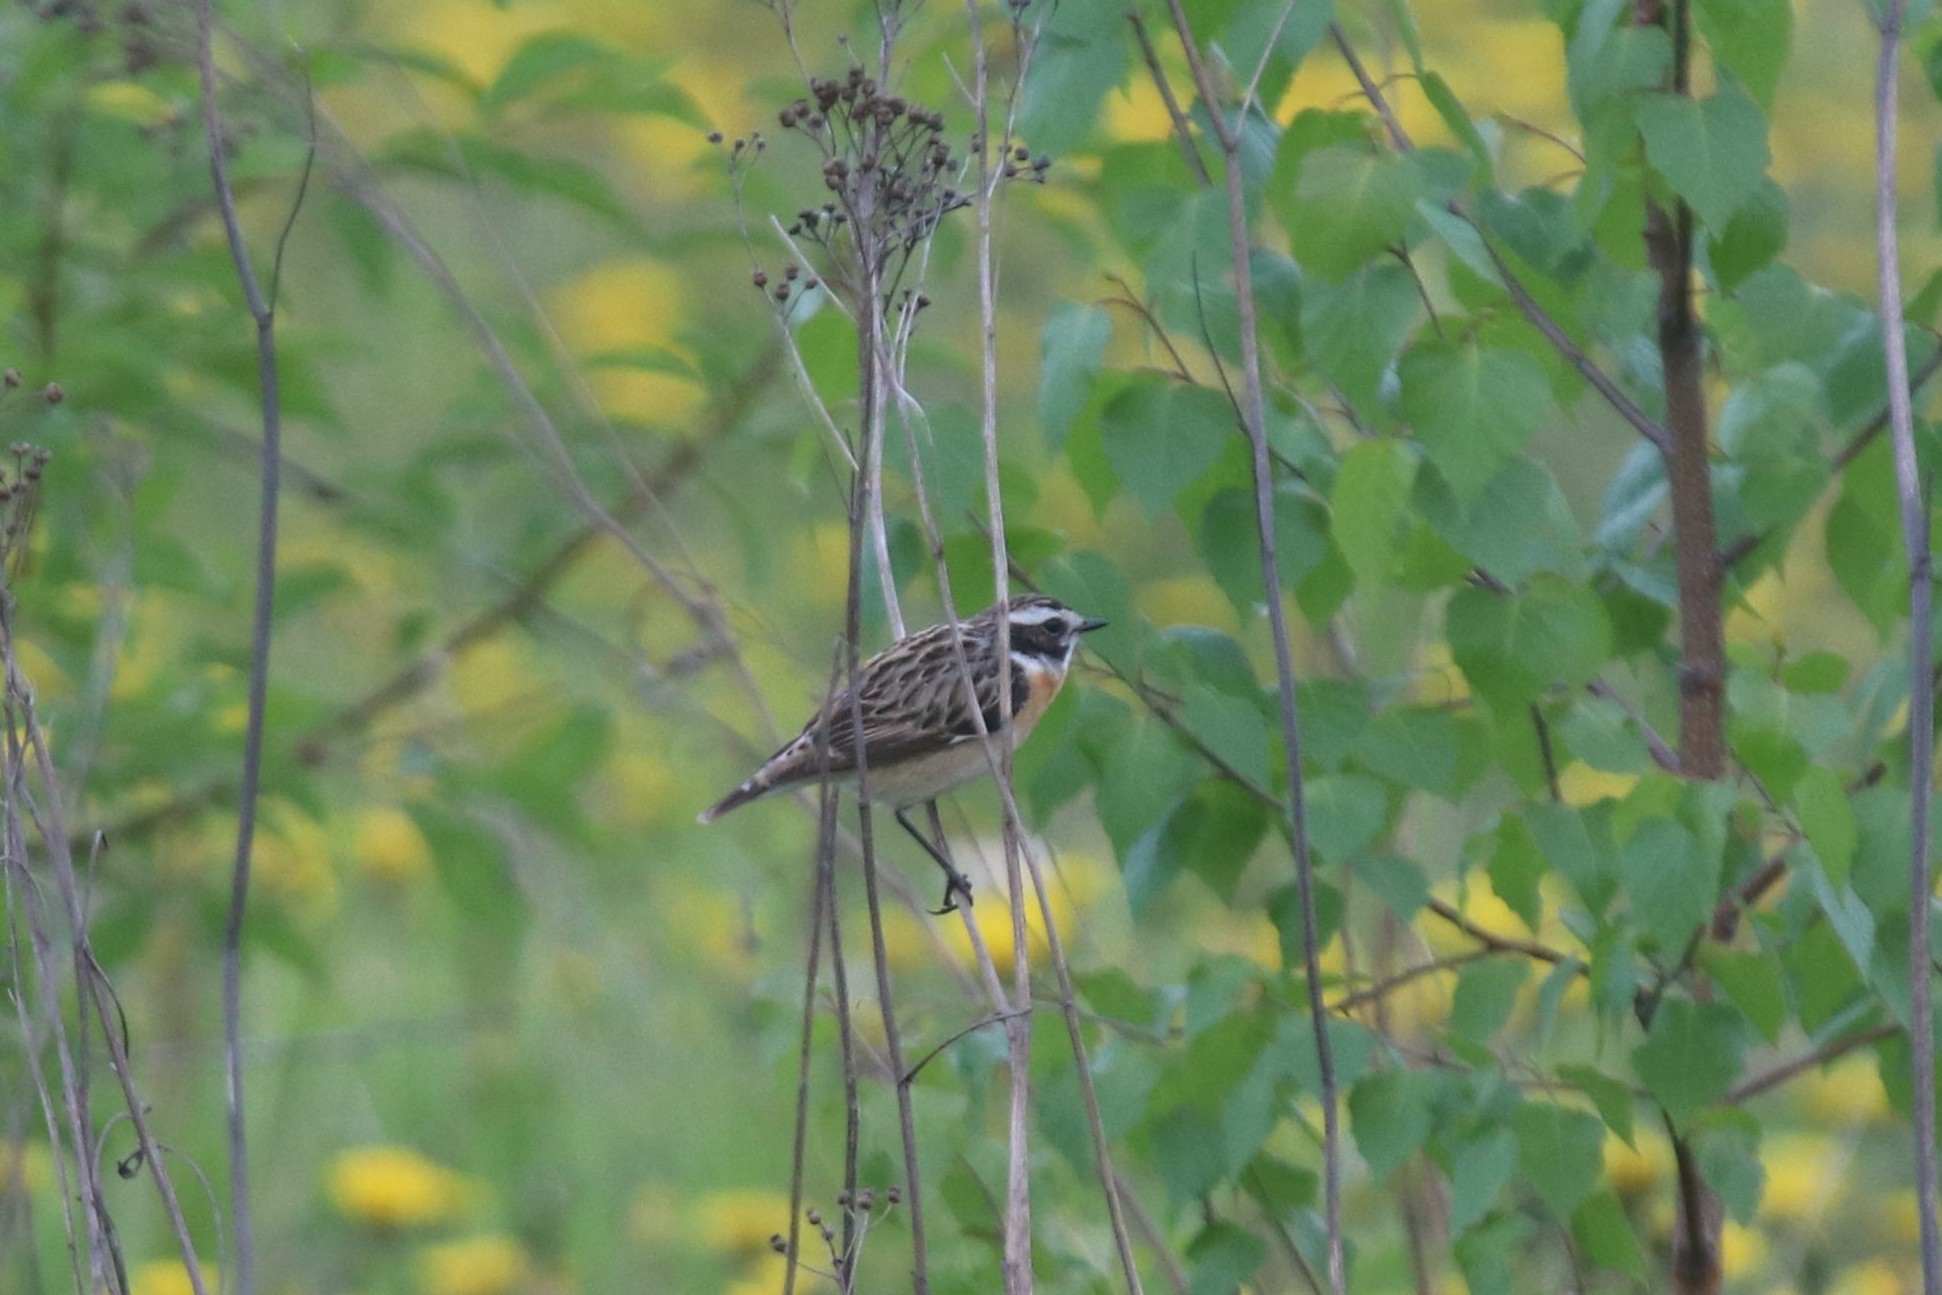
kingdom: Animalia
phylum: Chordata
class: Aves
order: Passeriformes
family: Muscicapidae
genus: Saxicola
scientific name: Saxicola rubetra
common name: Whinchat
